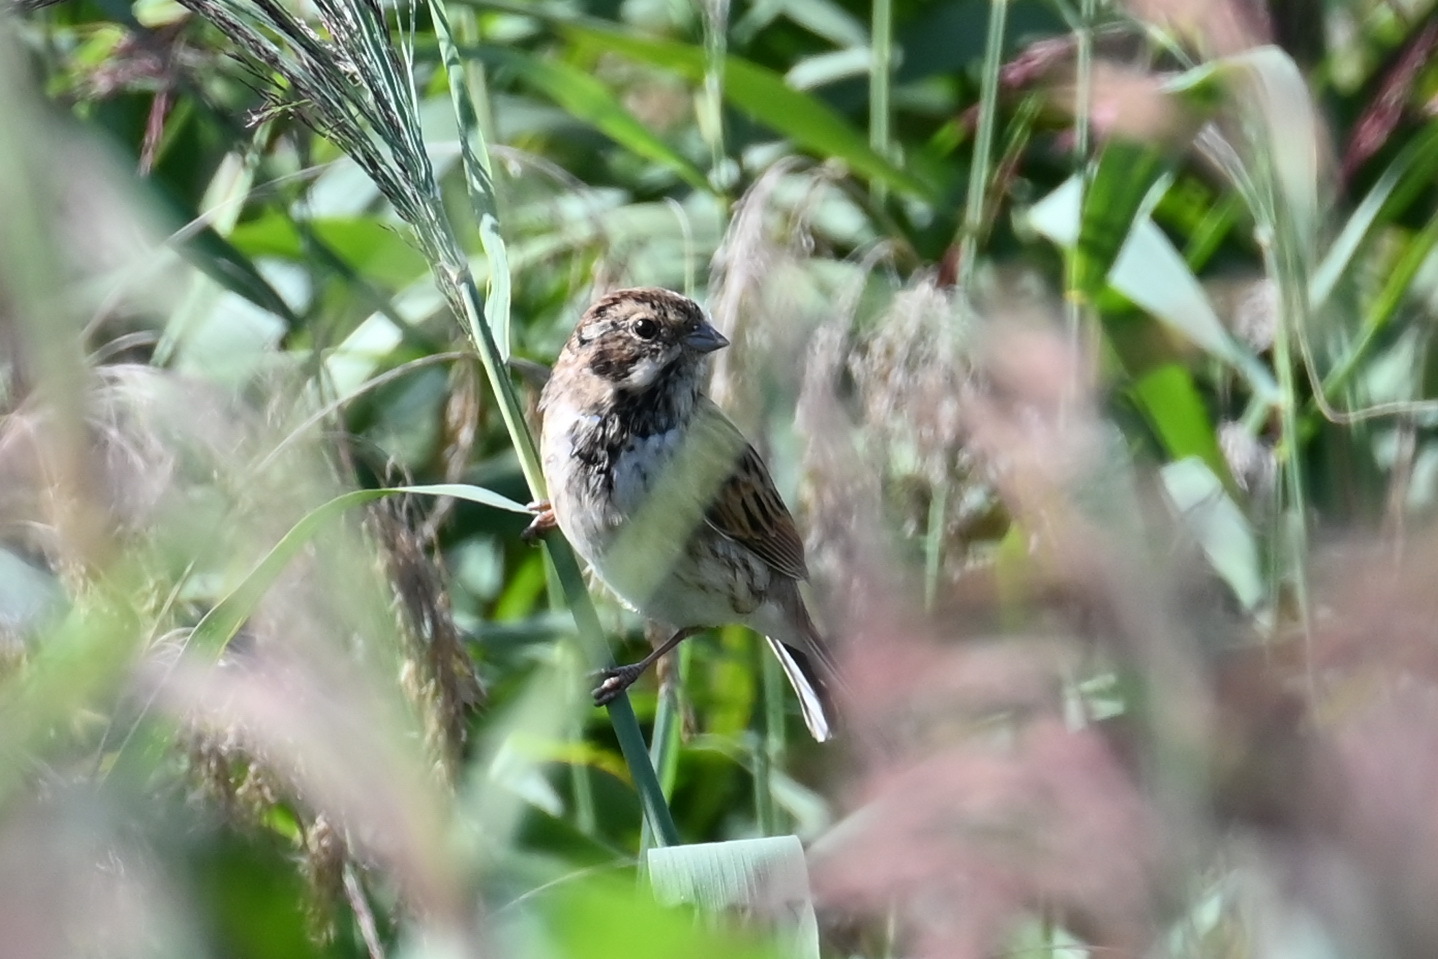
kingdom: Animalia
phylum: Chordata
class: Aves
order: Passeriformes
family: Emberizidae
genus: Emberiza
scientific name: Emberiza schoeniclus
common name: Reed bunting
